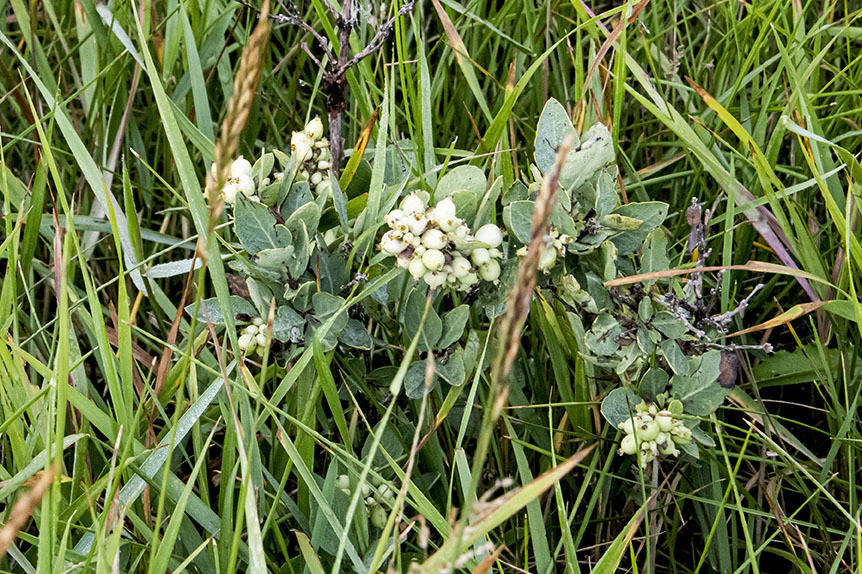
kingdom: Plantae
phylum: Tracheophyta
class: Magnoliopsida
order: Dipsacales
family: Caprifoliaceae
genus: Symphoricarpos
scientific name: Symphoricarpos occidentalis
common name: Wolfberry
